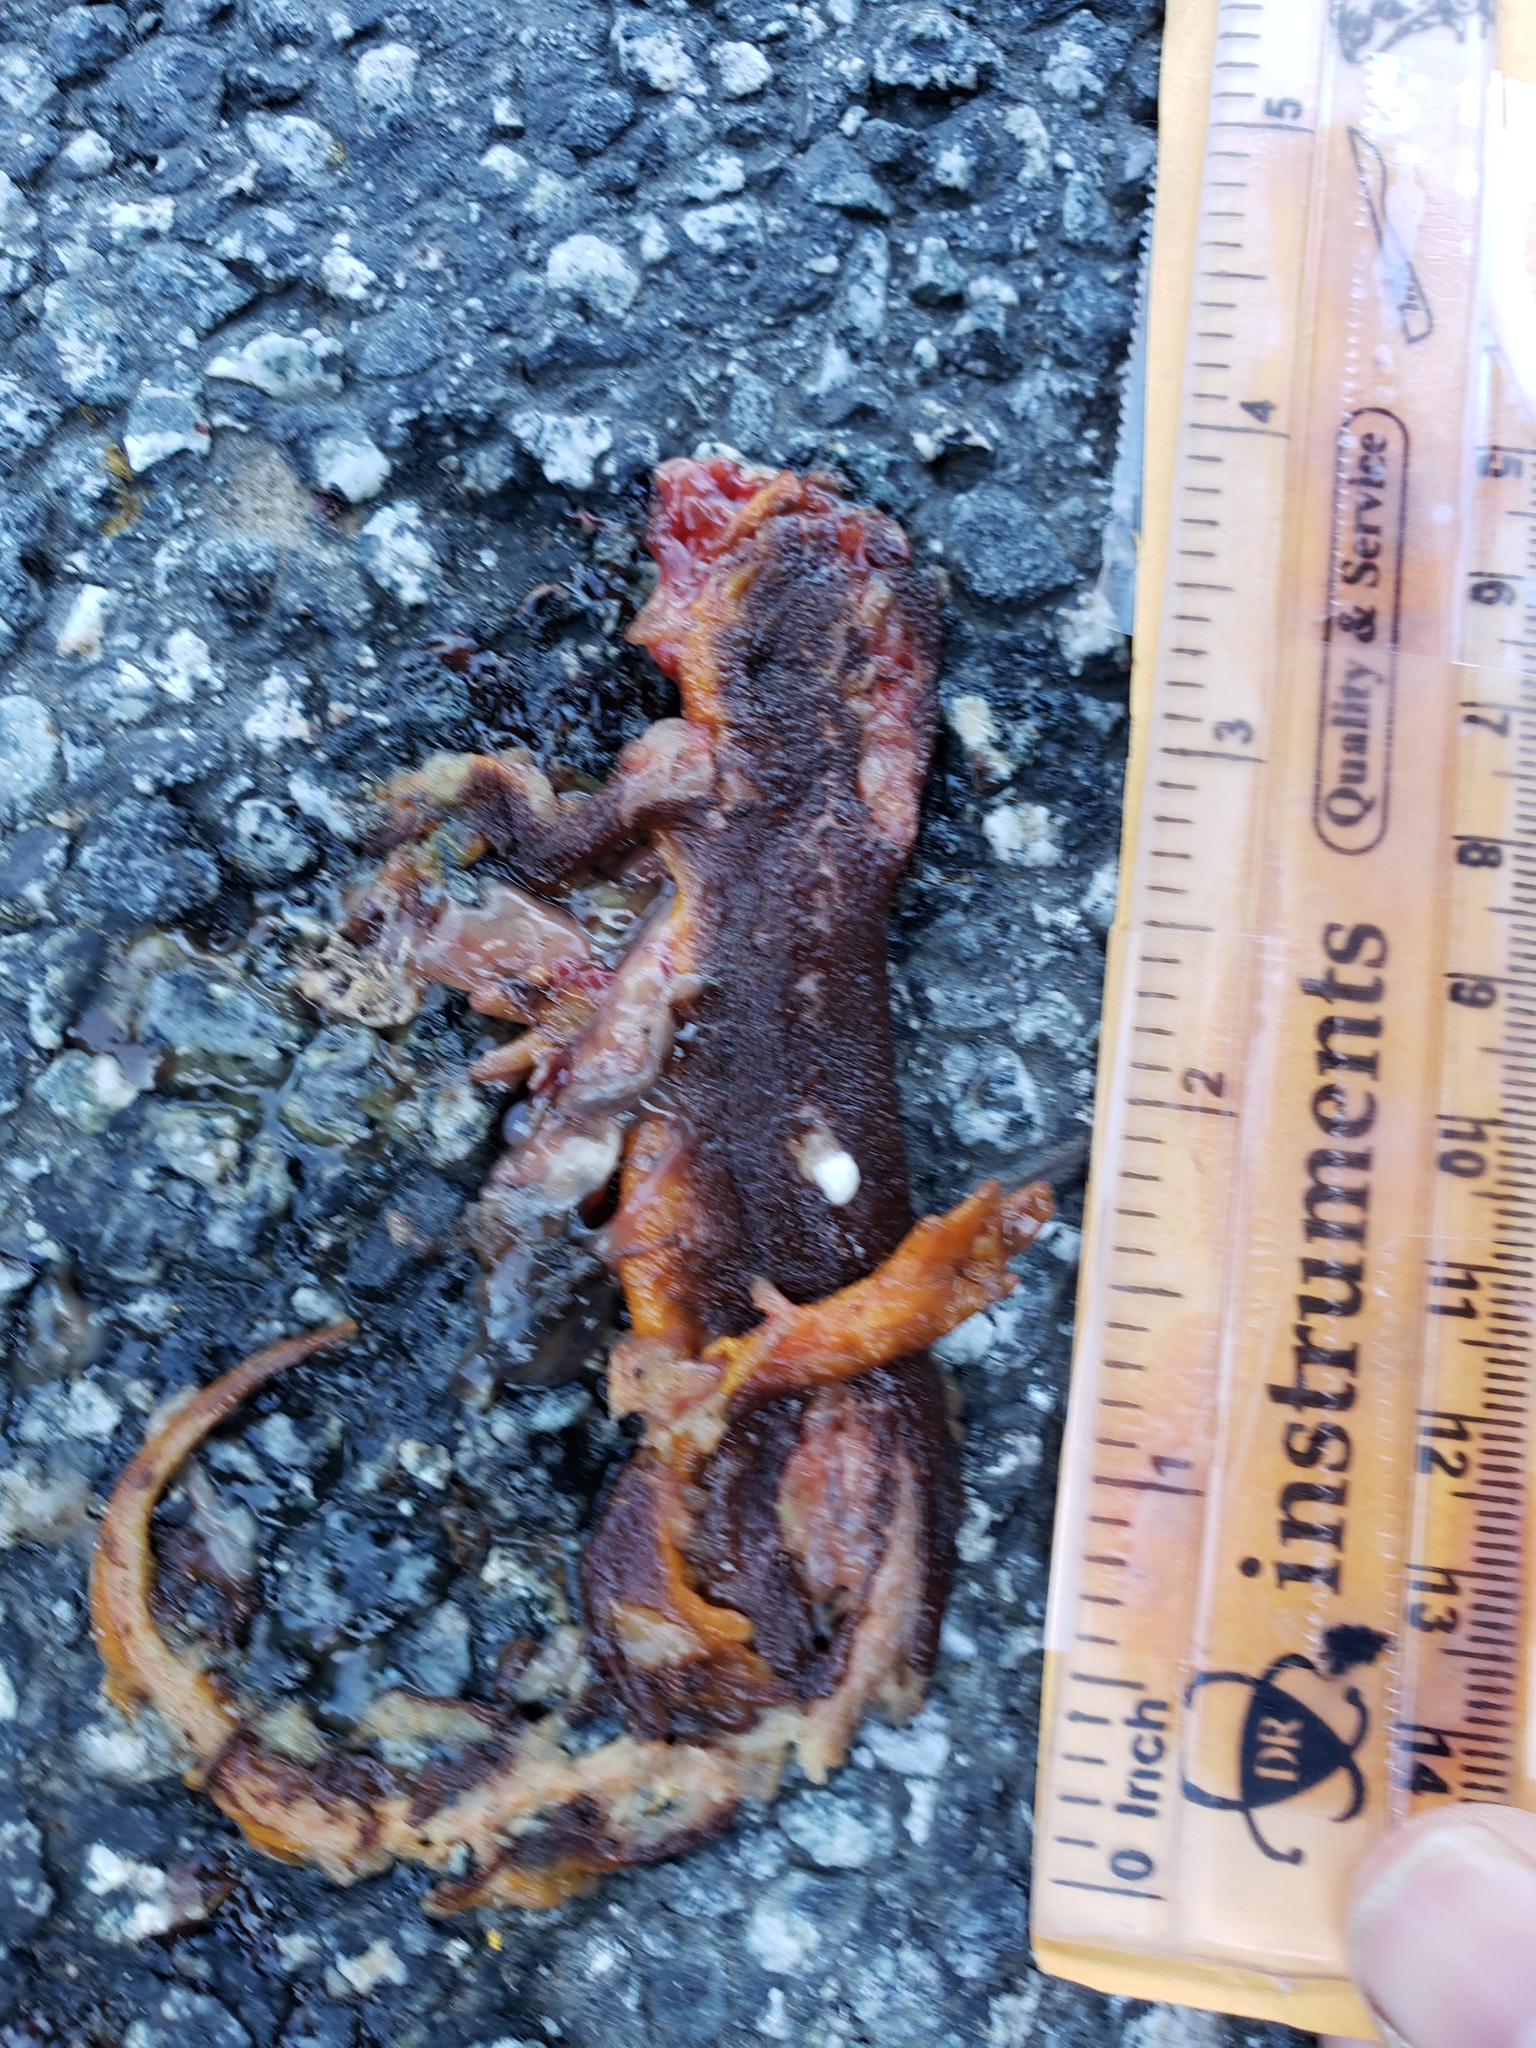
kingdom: Animalia
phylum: Chordata
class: Amphibia
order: Caudata
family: Salamandridae
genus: Taricha
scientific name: Taricha
